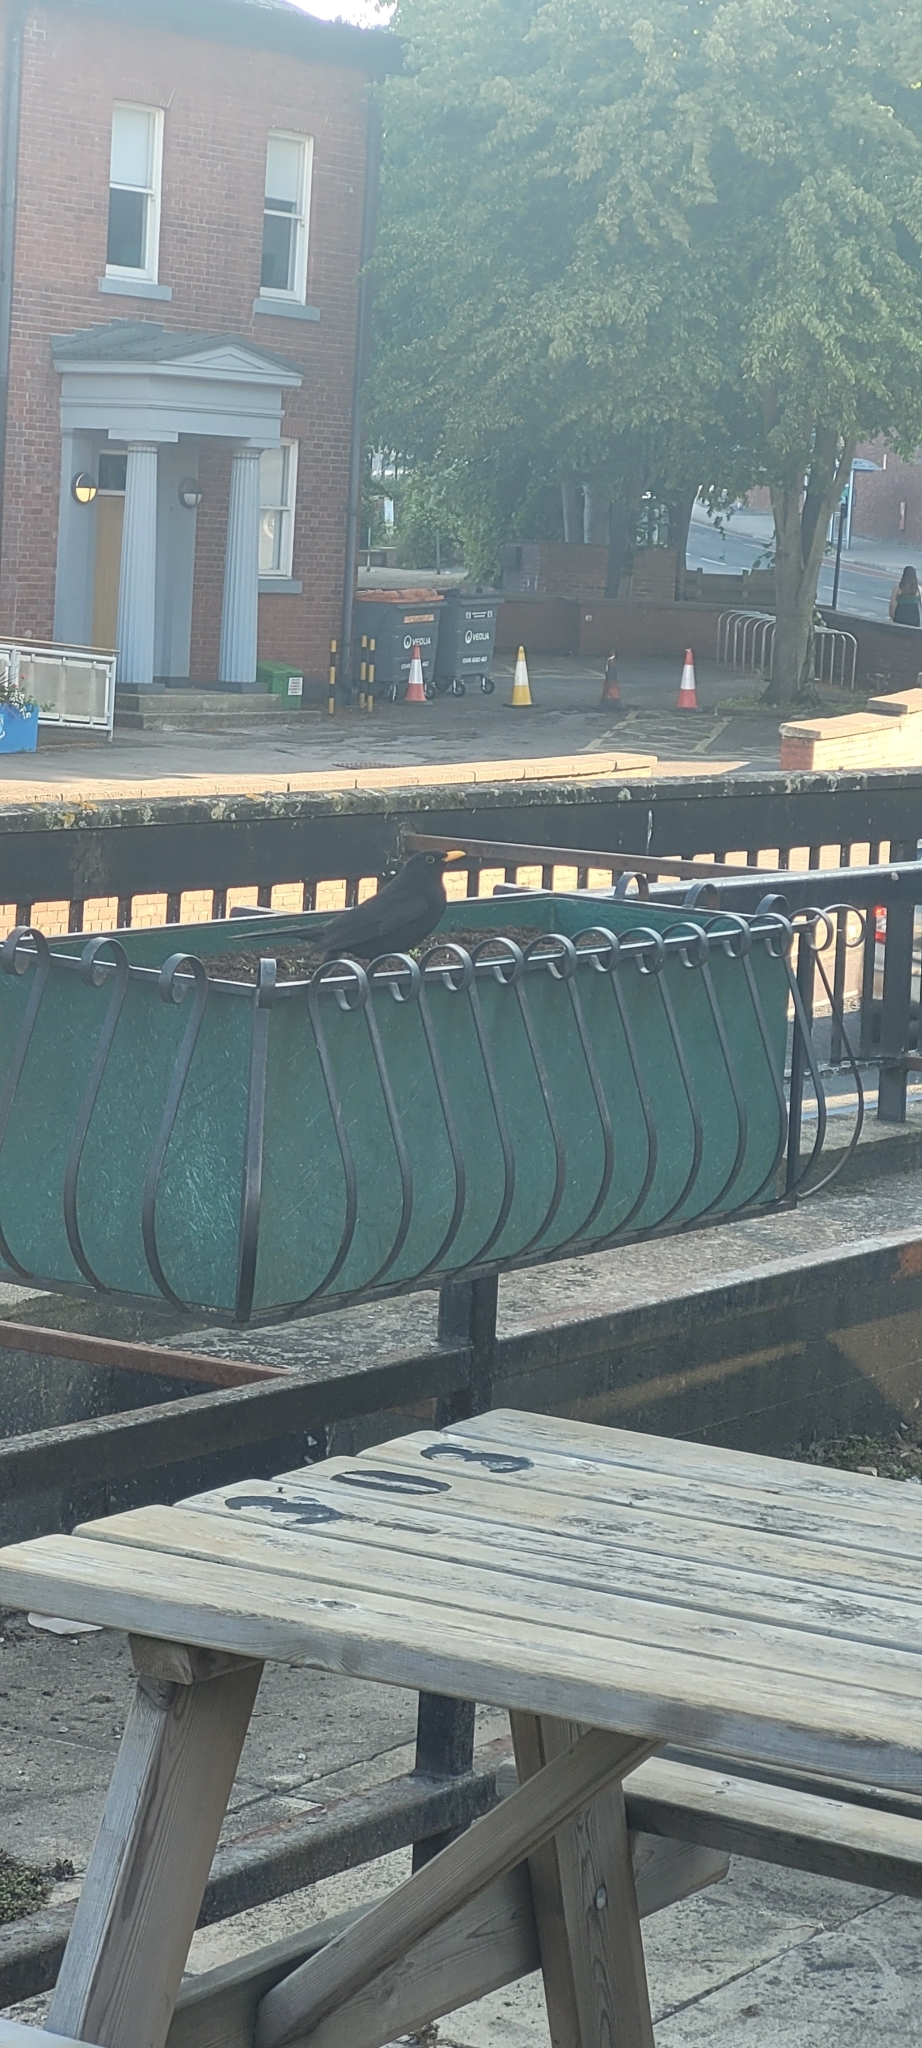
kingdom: Animalia
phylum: Chordata
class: Aves
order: Passeriformes
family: Turdidae
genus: Turdus
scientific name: Turdus merula
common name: Common blackbird
